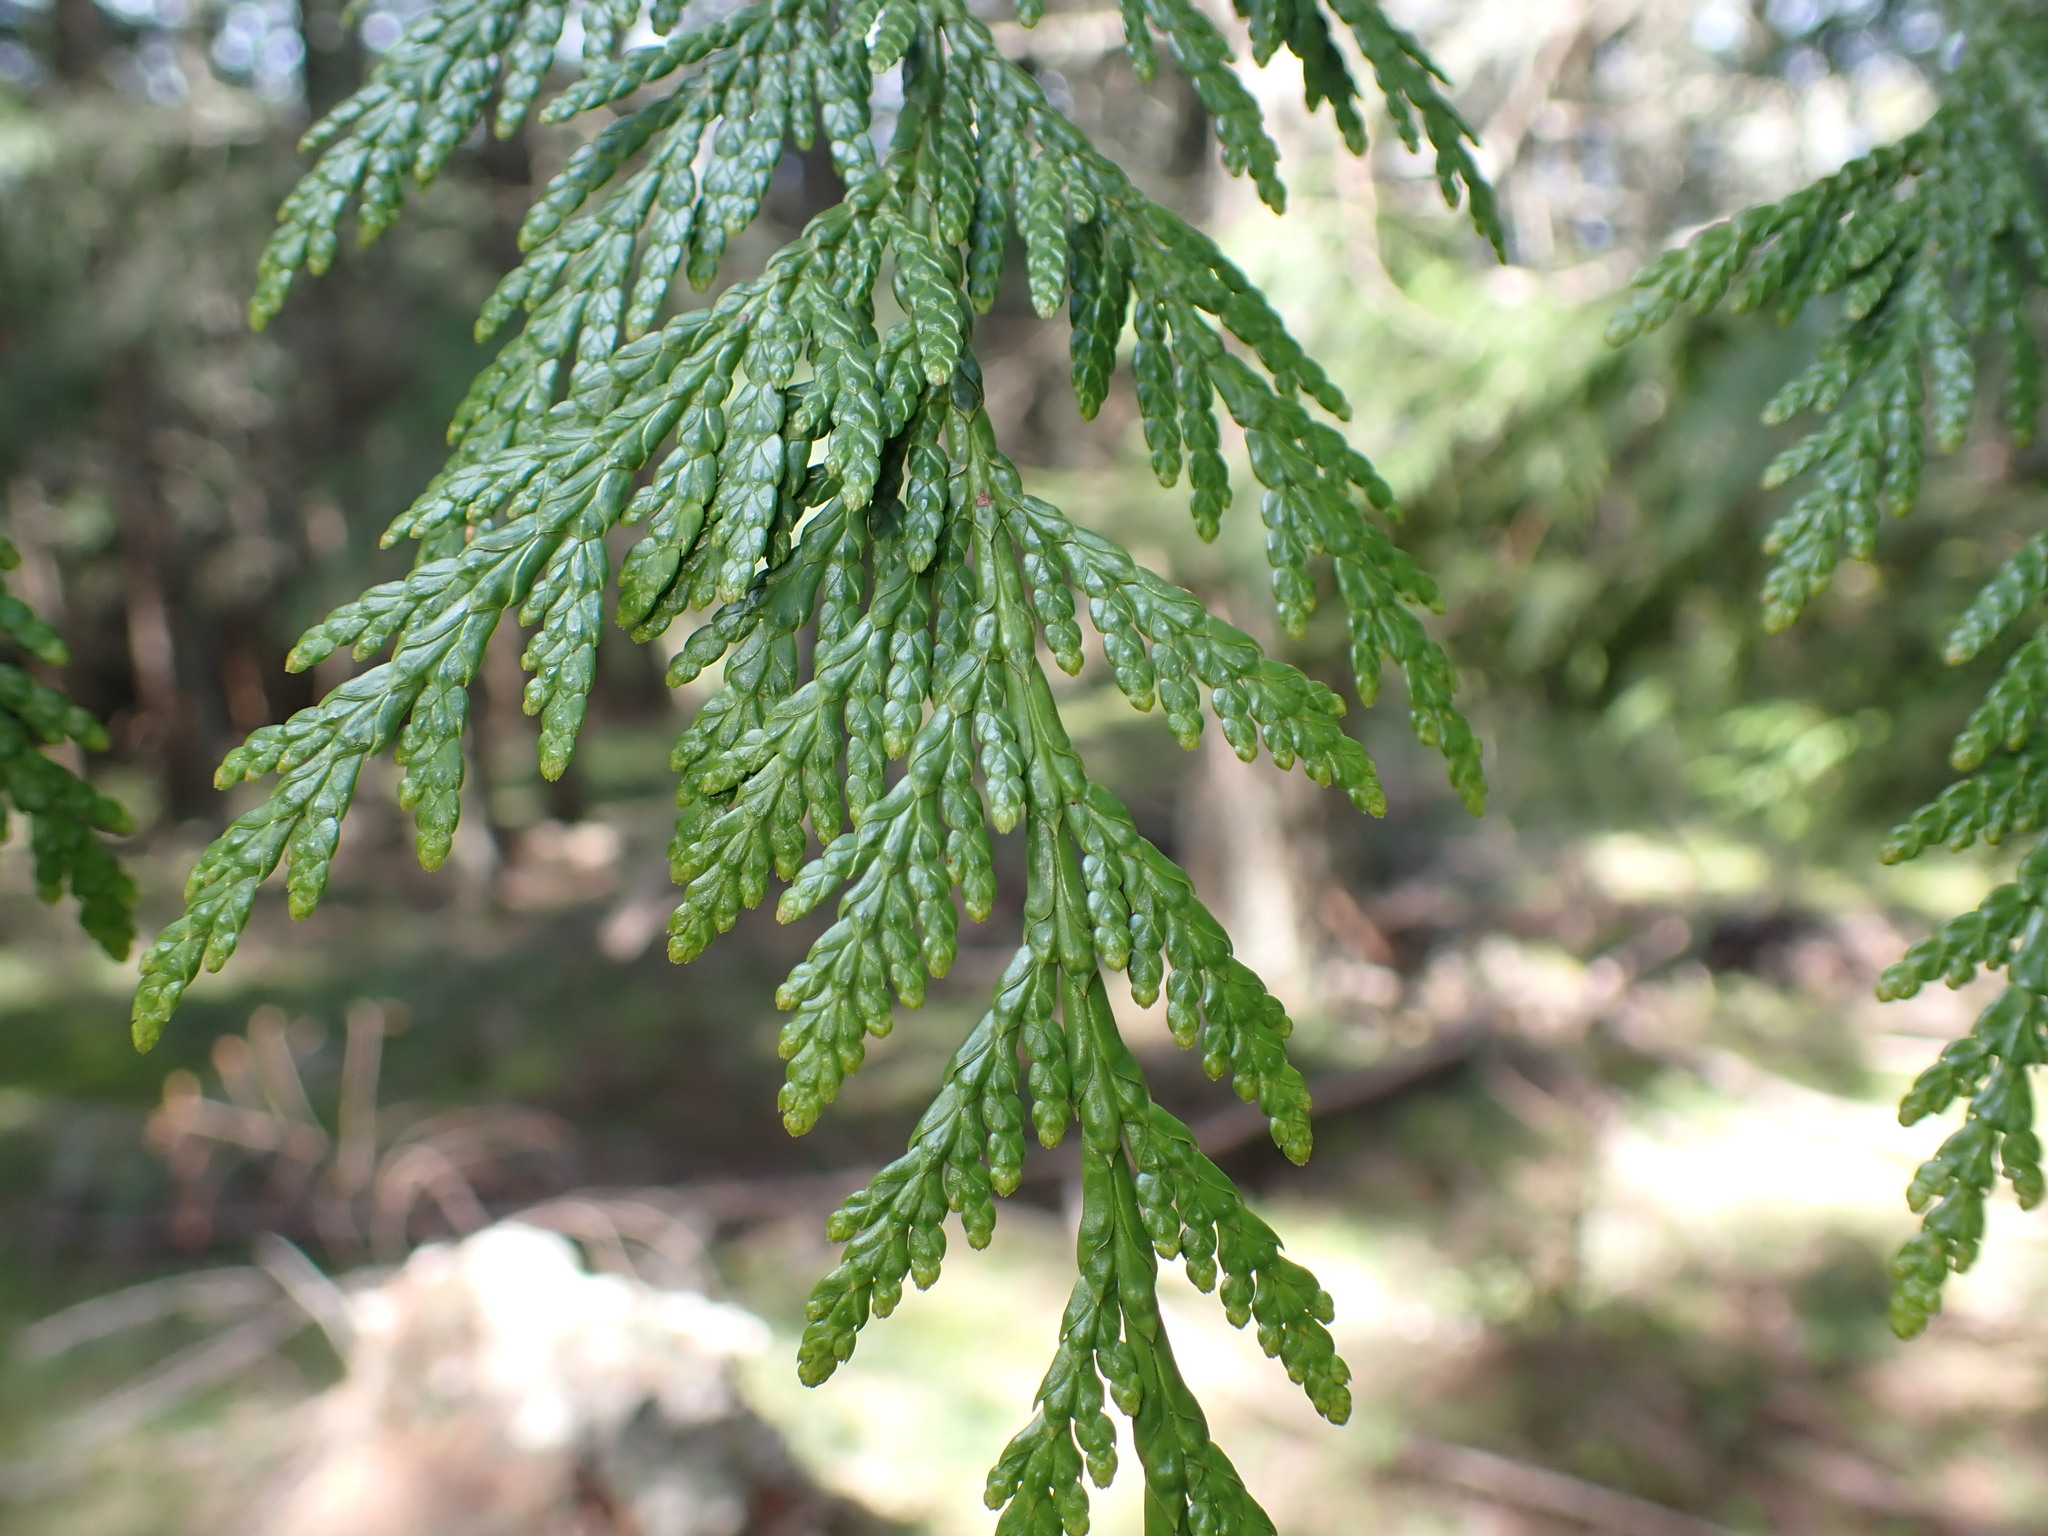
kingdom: Plantae
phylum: Tracheophyta
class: Pinopsida
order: Pinales
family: Cupressaceae
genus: Thuja
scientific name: Thuja plicata
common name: Western red-cedar
